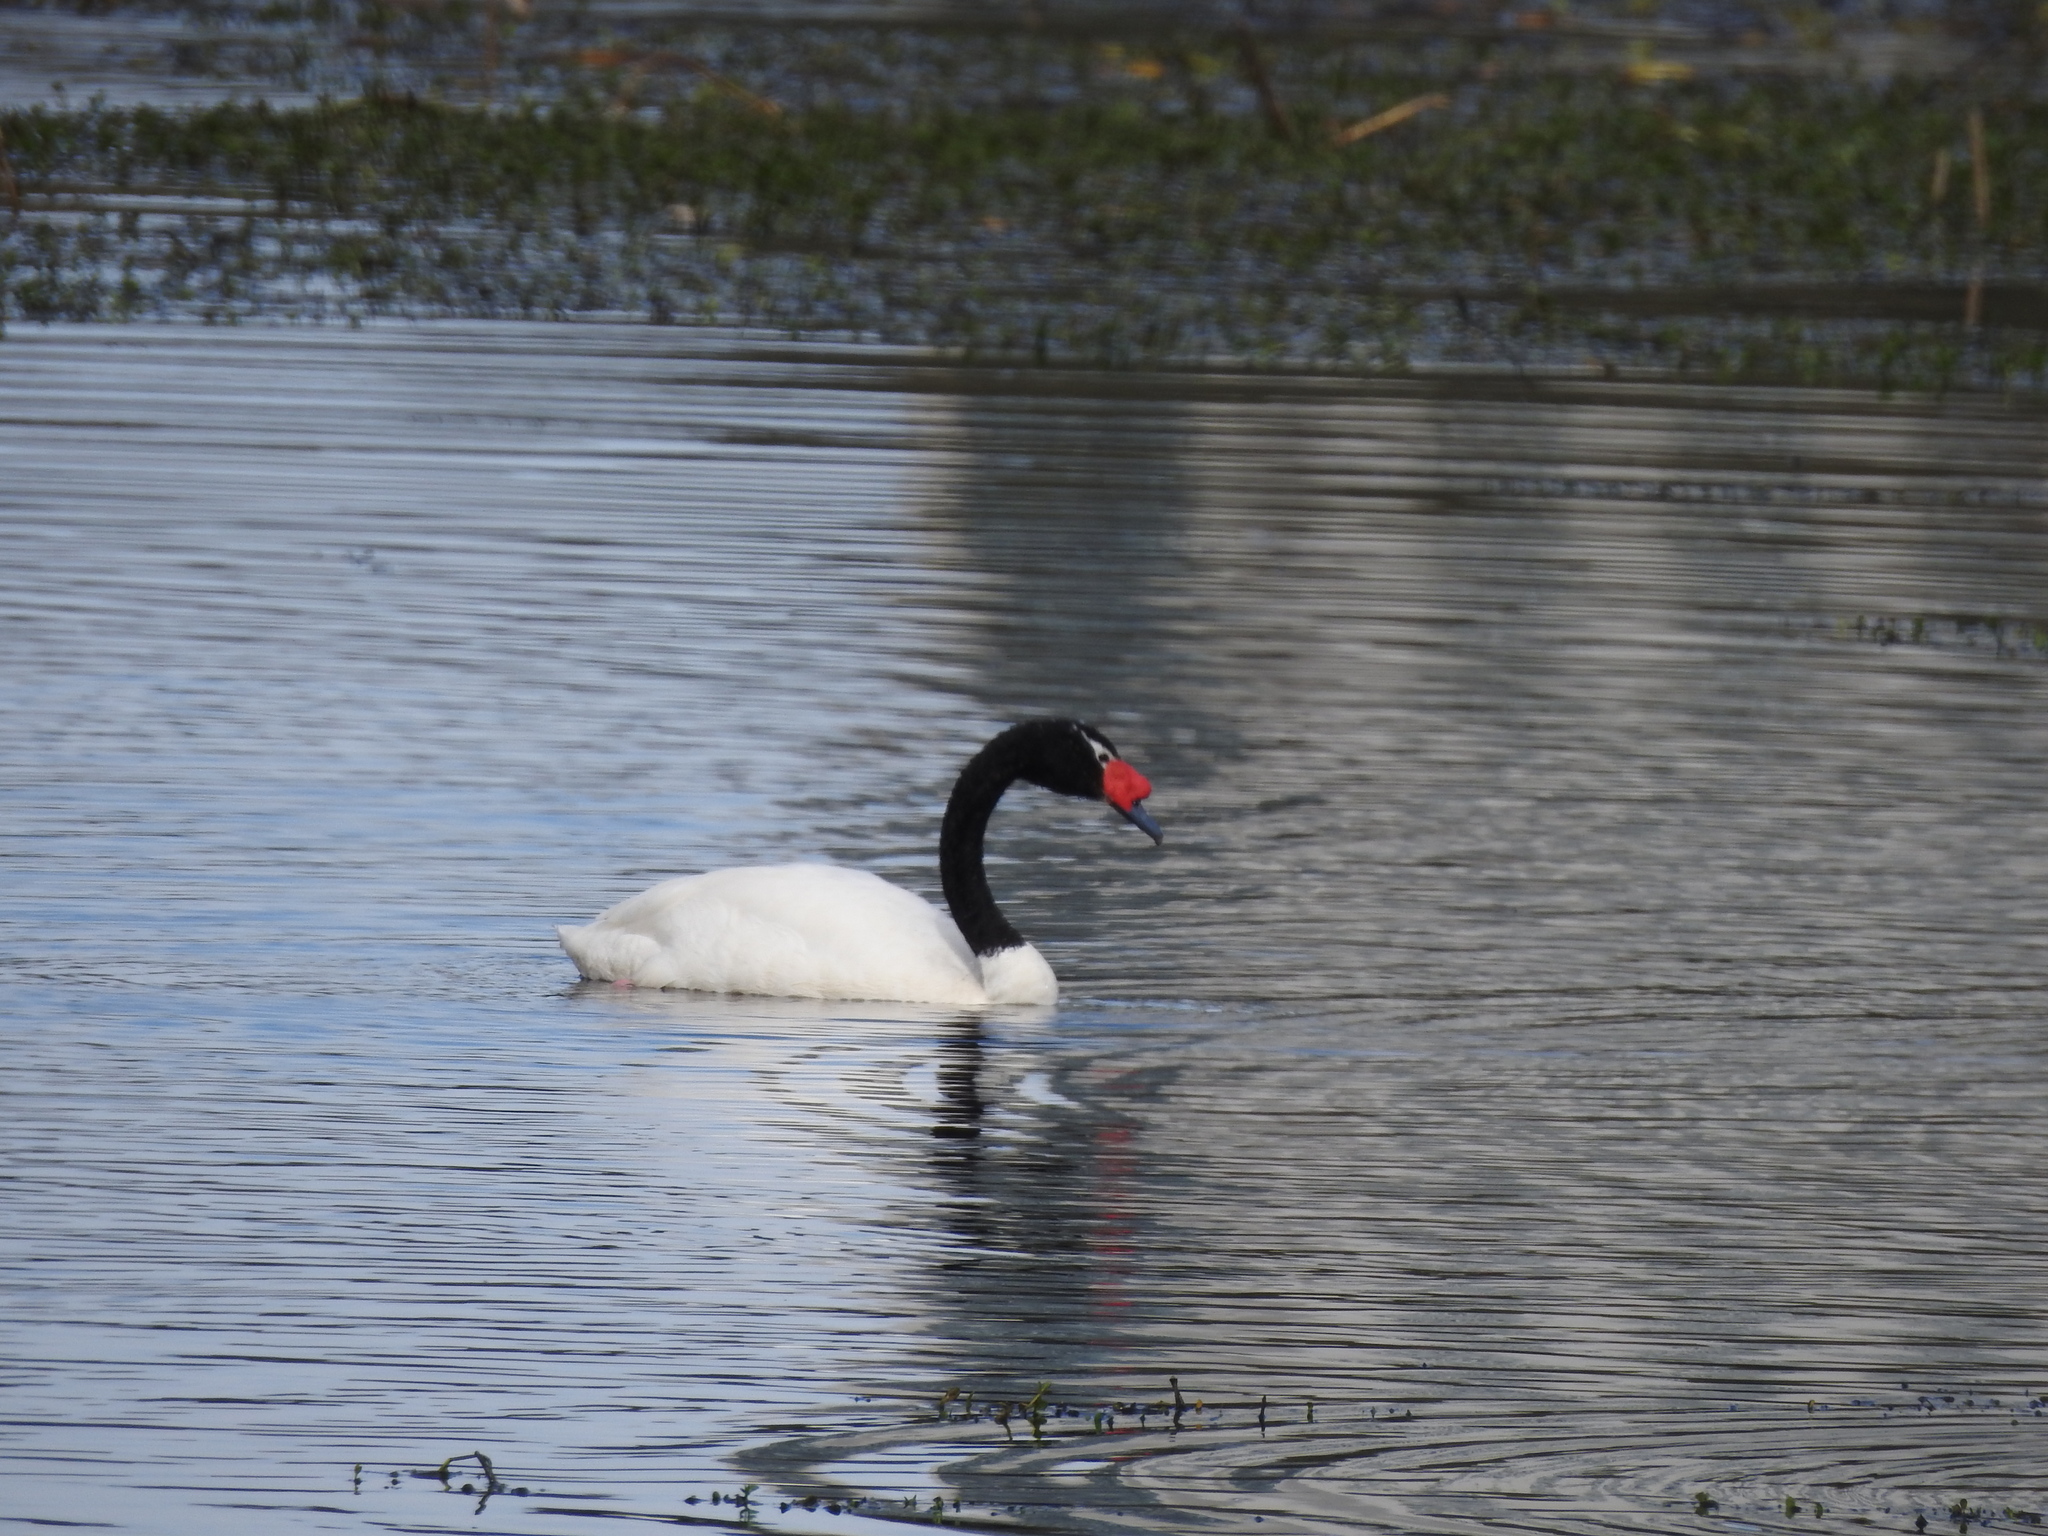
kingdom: Animalia
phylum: Chordata
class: Aves
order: Anseriformes
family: Anatidae
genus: Cygnus
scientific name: Cygnus melancoryphus
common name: Black-necked swan
